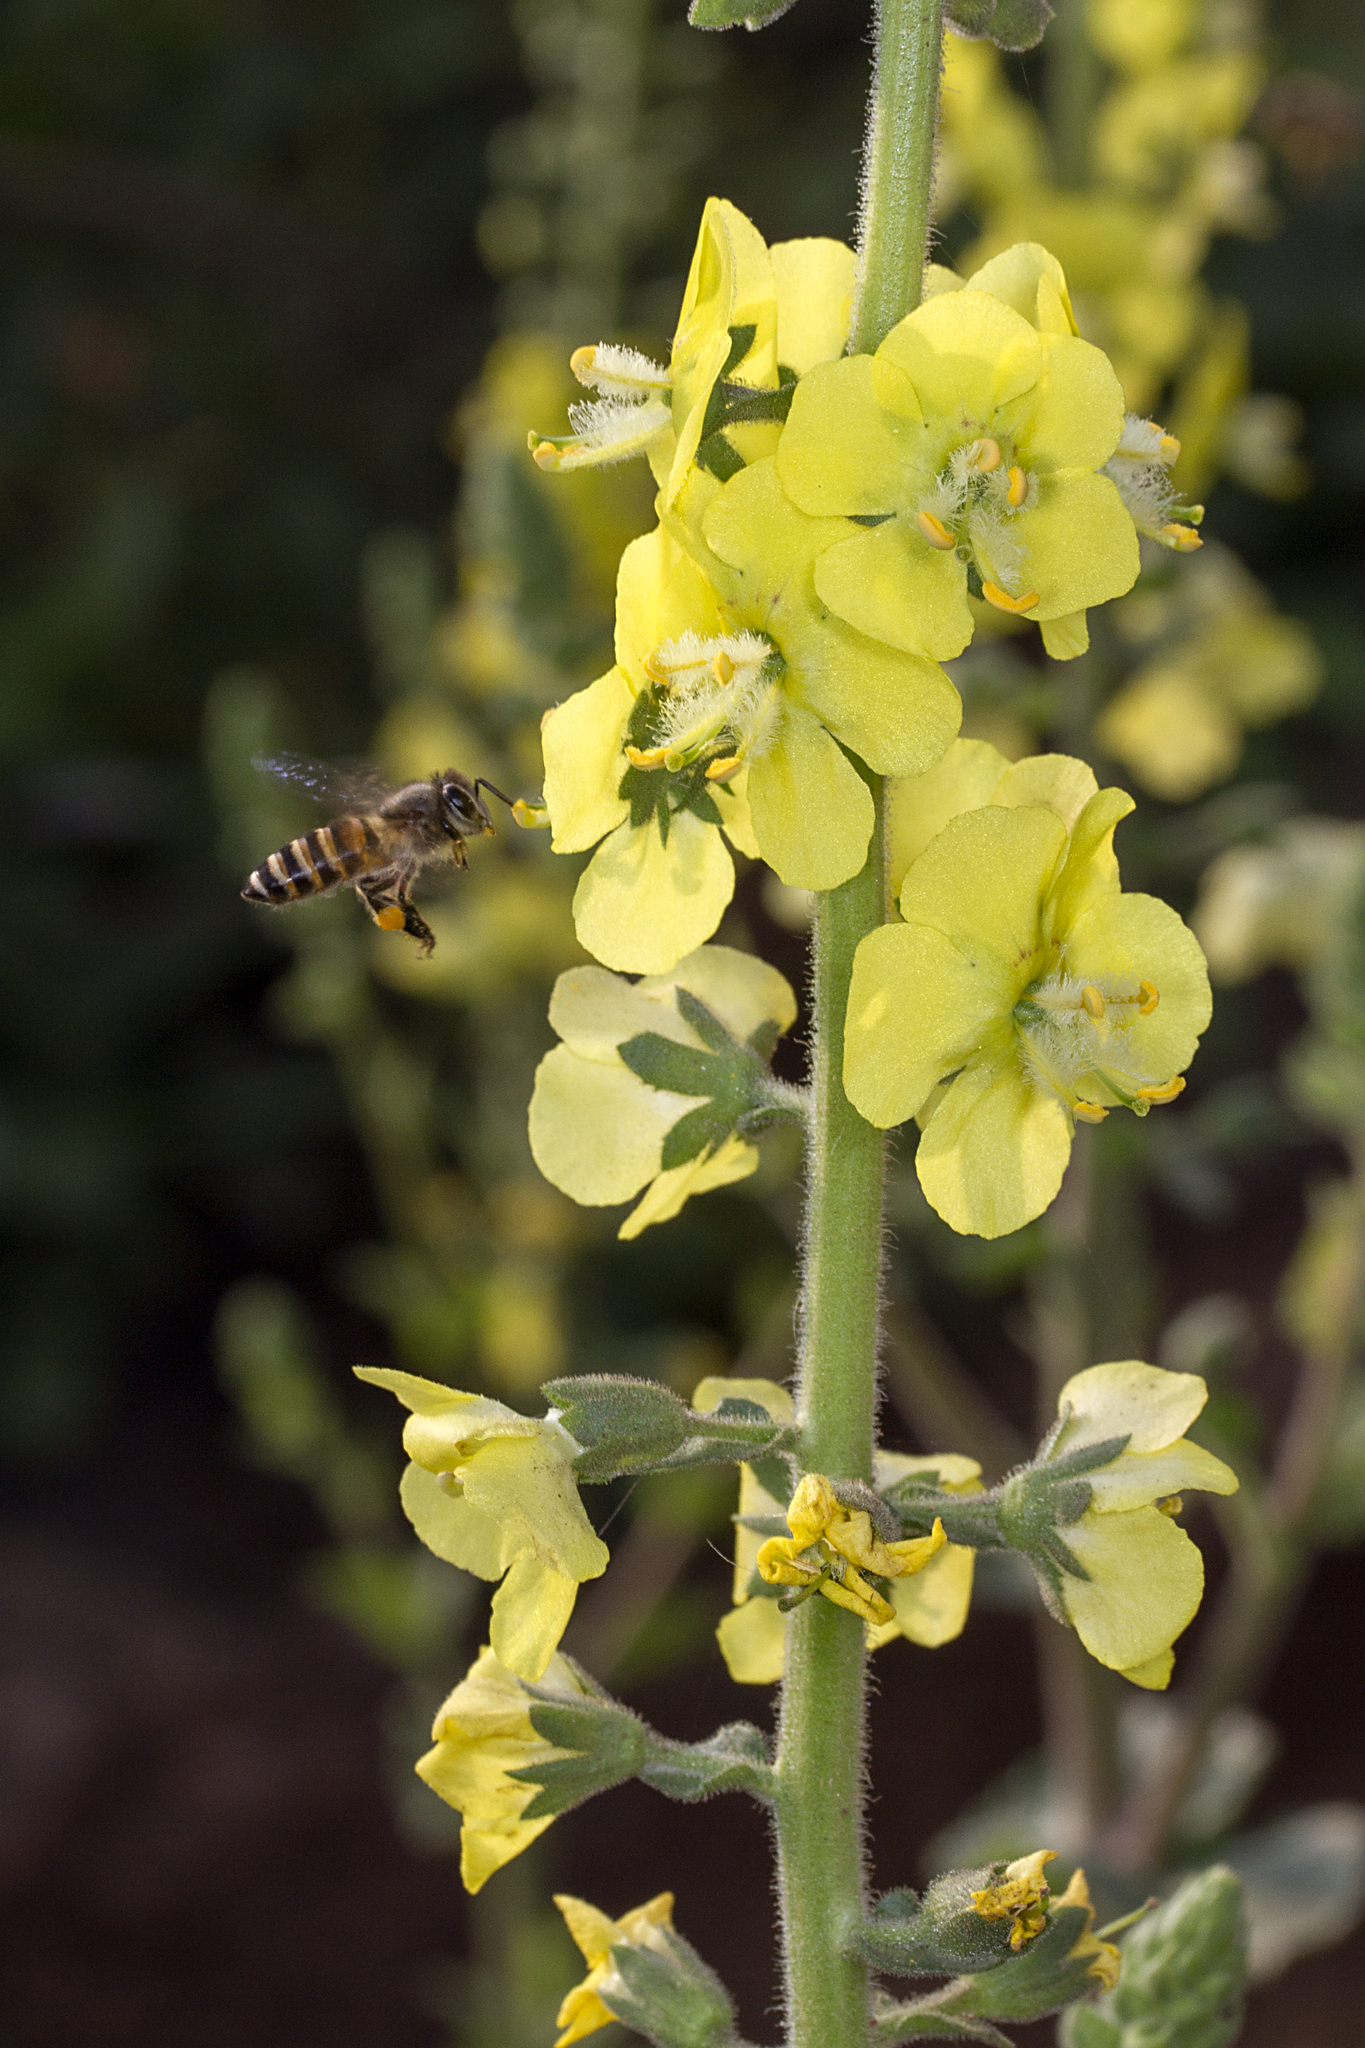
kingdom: Plantae
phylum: Tracheophyta
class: Magnoliopsida
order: Lamiales
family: Scrophulariaceae
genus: Verbascum
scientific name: Verbascum coromandelianum
